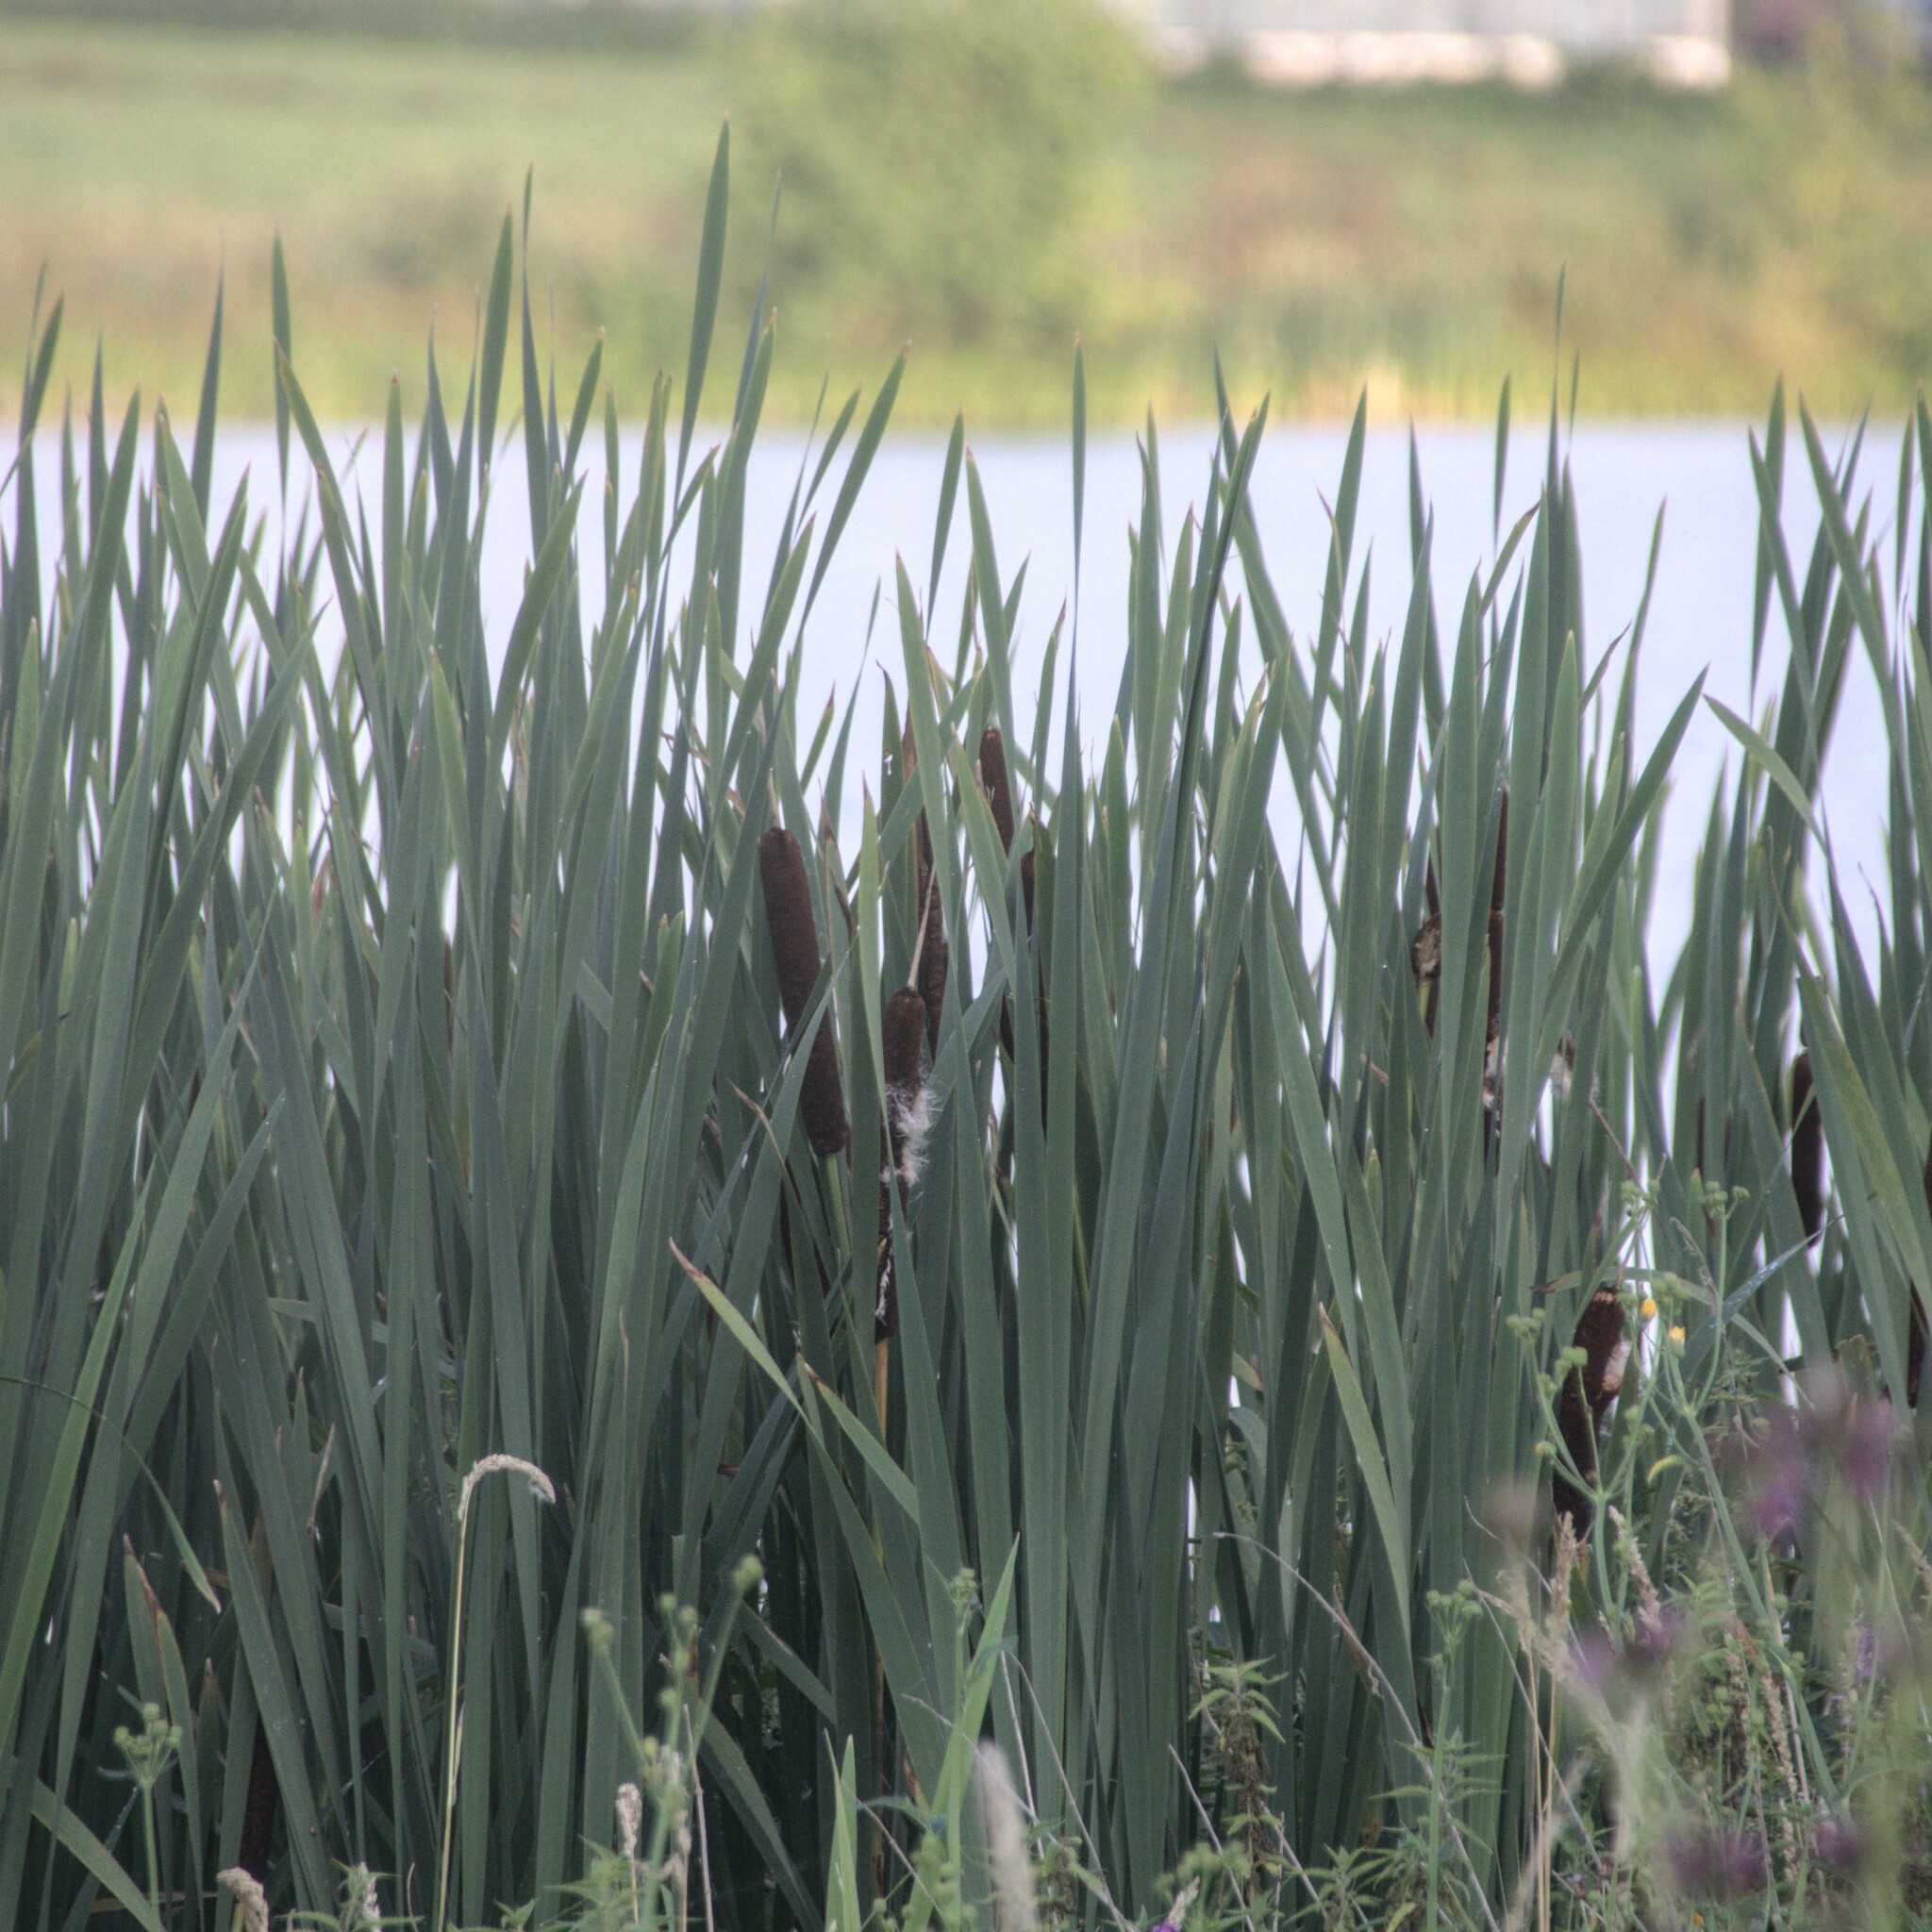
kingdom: Plantae
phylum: Tracheophyta
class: Liliopsida
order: Poales
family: Typhaceae
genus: Typha
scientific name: Typha latifolia
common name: Broadleaf cattail
